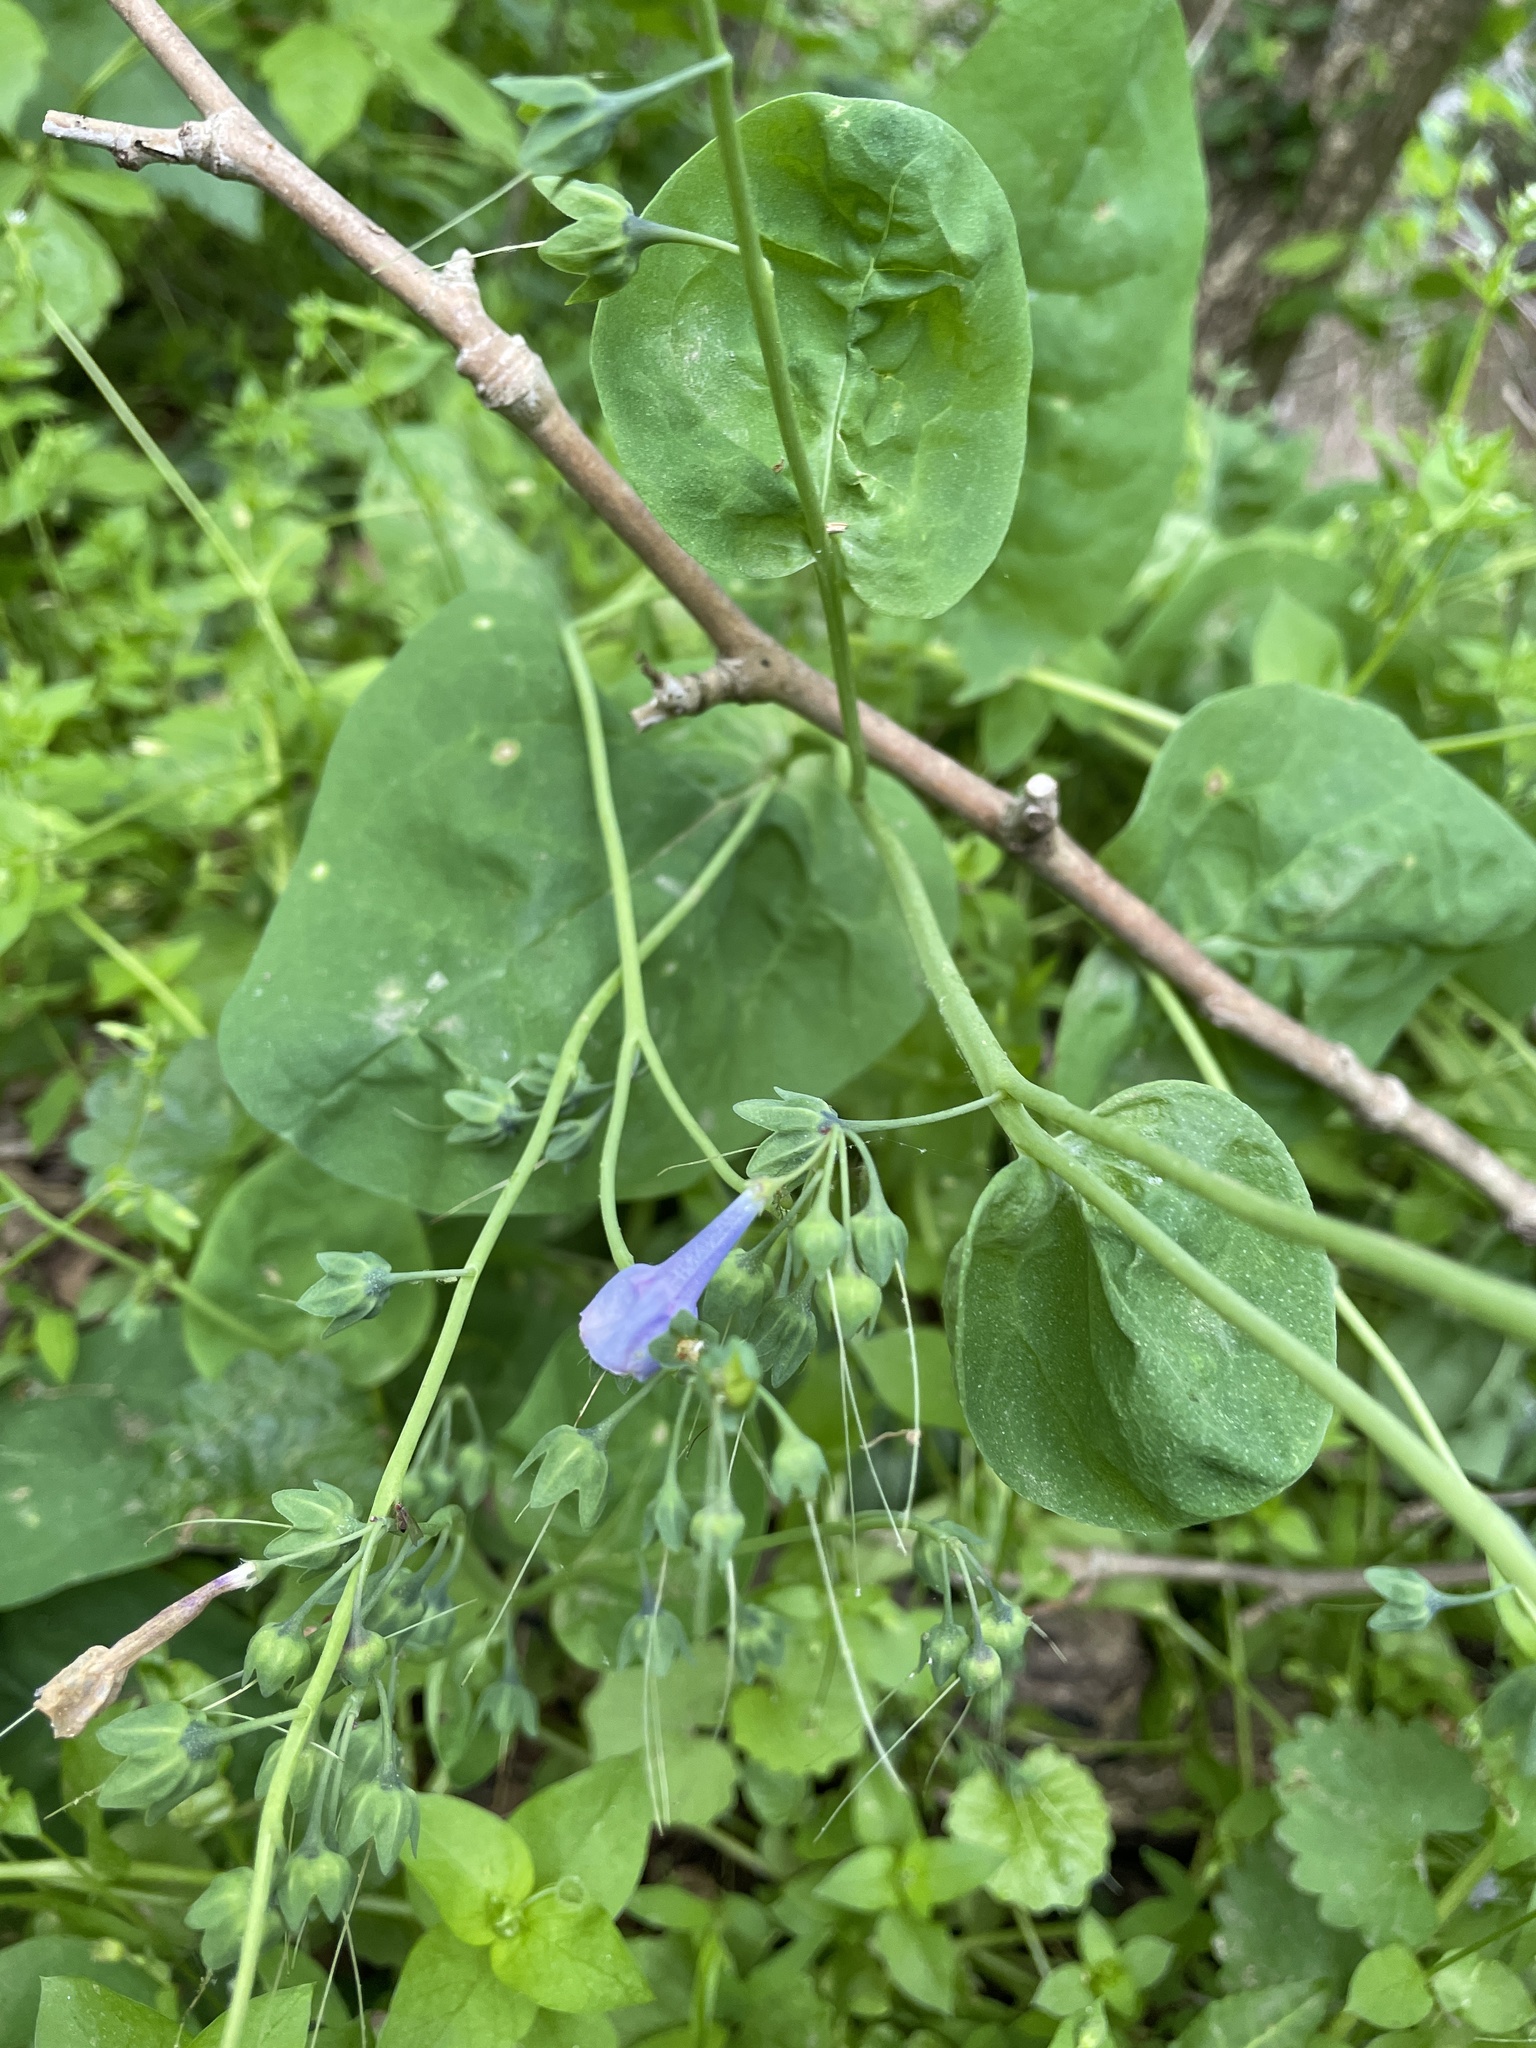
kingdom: Plantae
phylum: Tracheophyta
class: Magnoliopsida
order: Boraginales
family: Boraginaceae
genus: Mertensia
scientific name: Mertensia virginica
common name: Virginia bluebells
